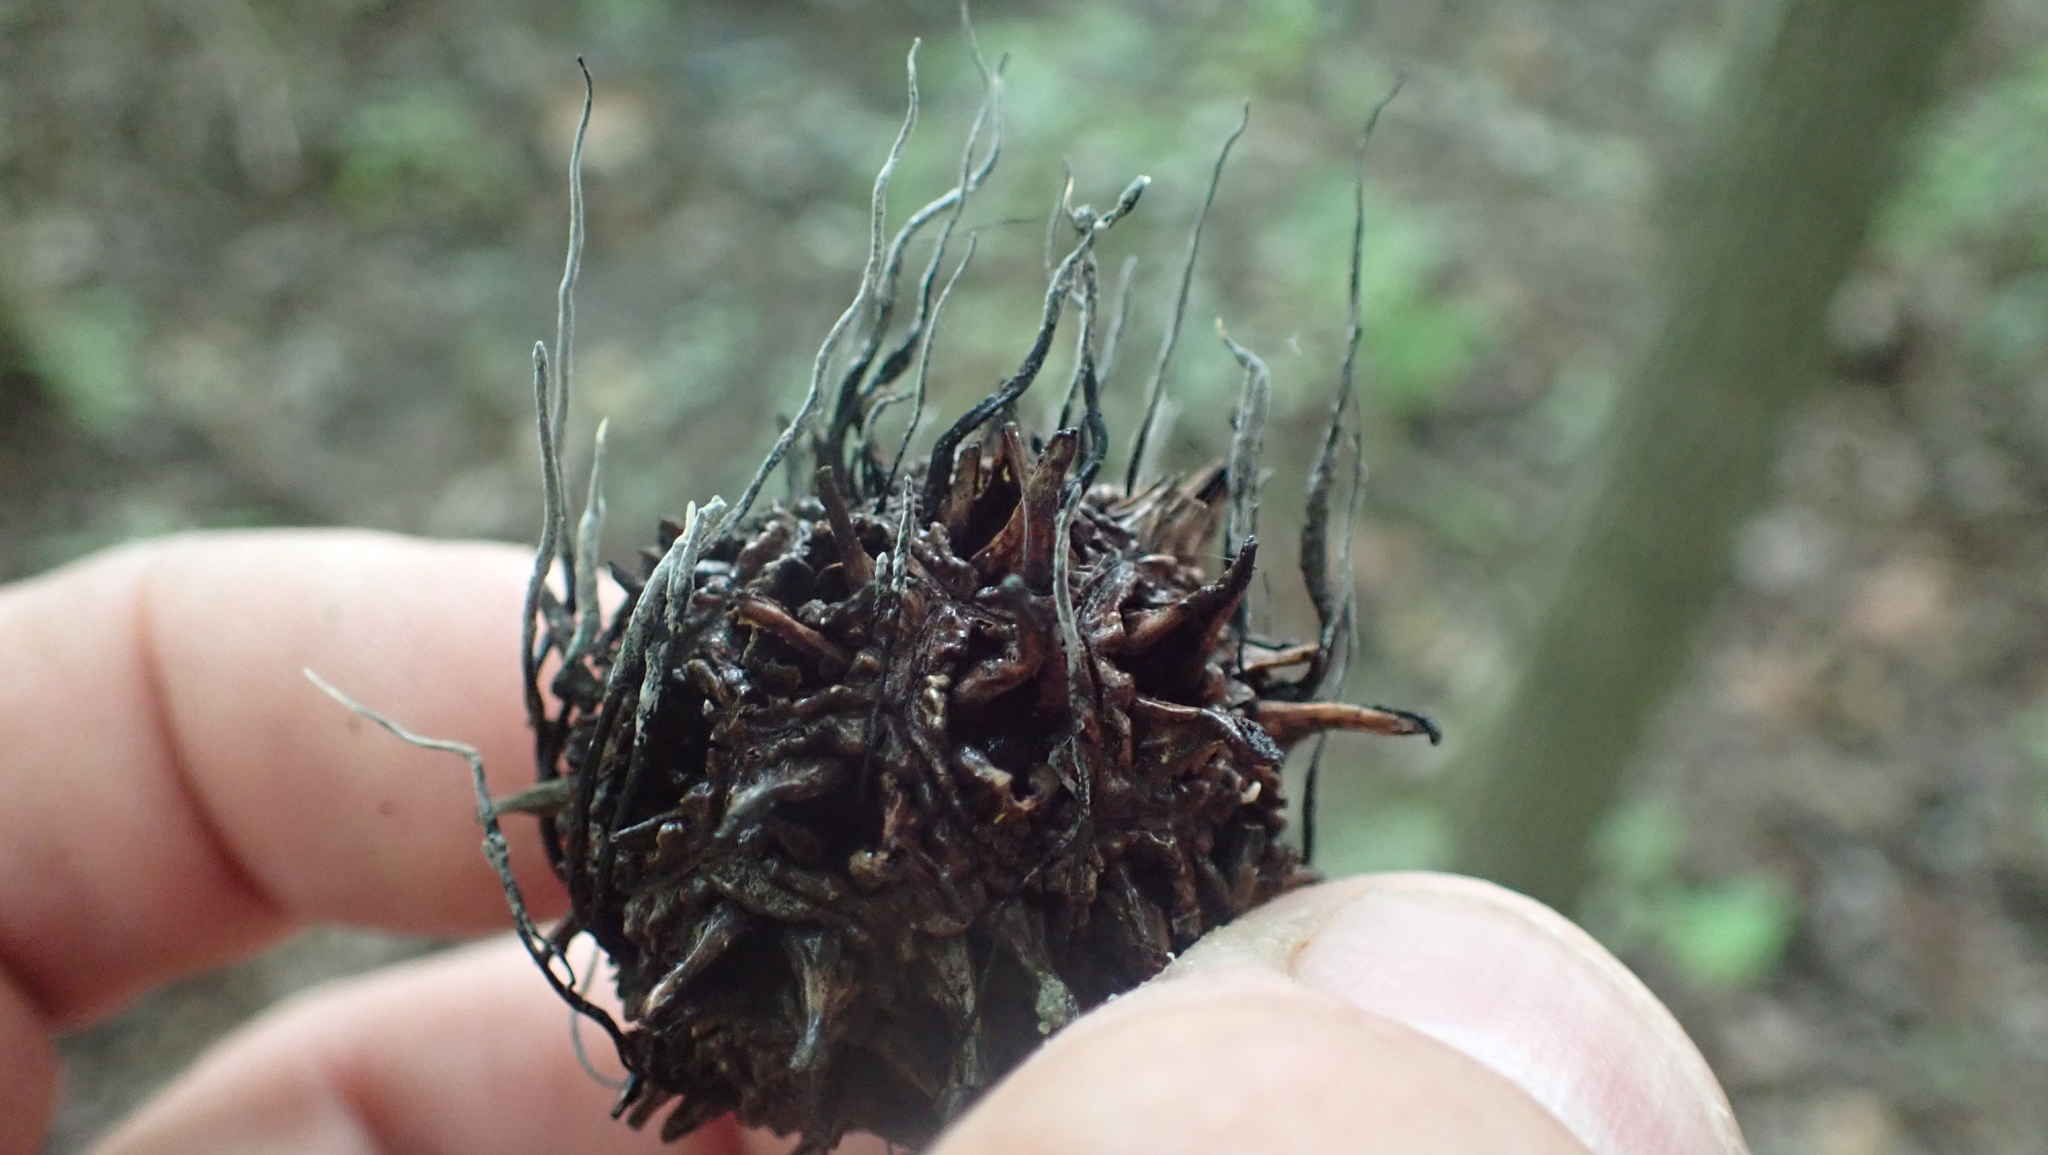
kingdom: Fungi
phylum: Ascomycota
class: Sordariomycetes
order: Xylariales
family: Xylariaceae
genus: Xylaria
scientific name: Xylaria liquidambaris
